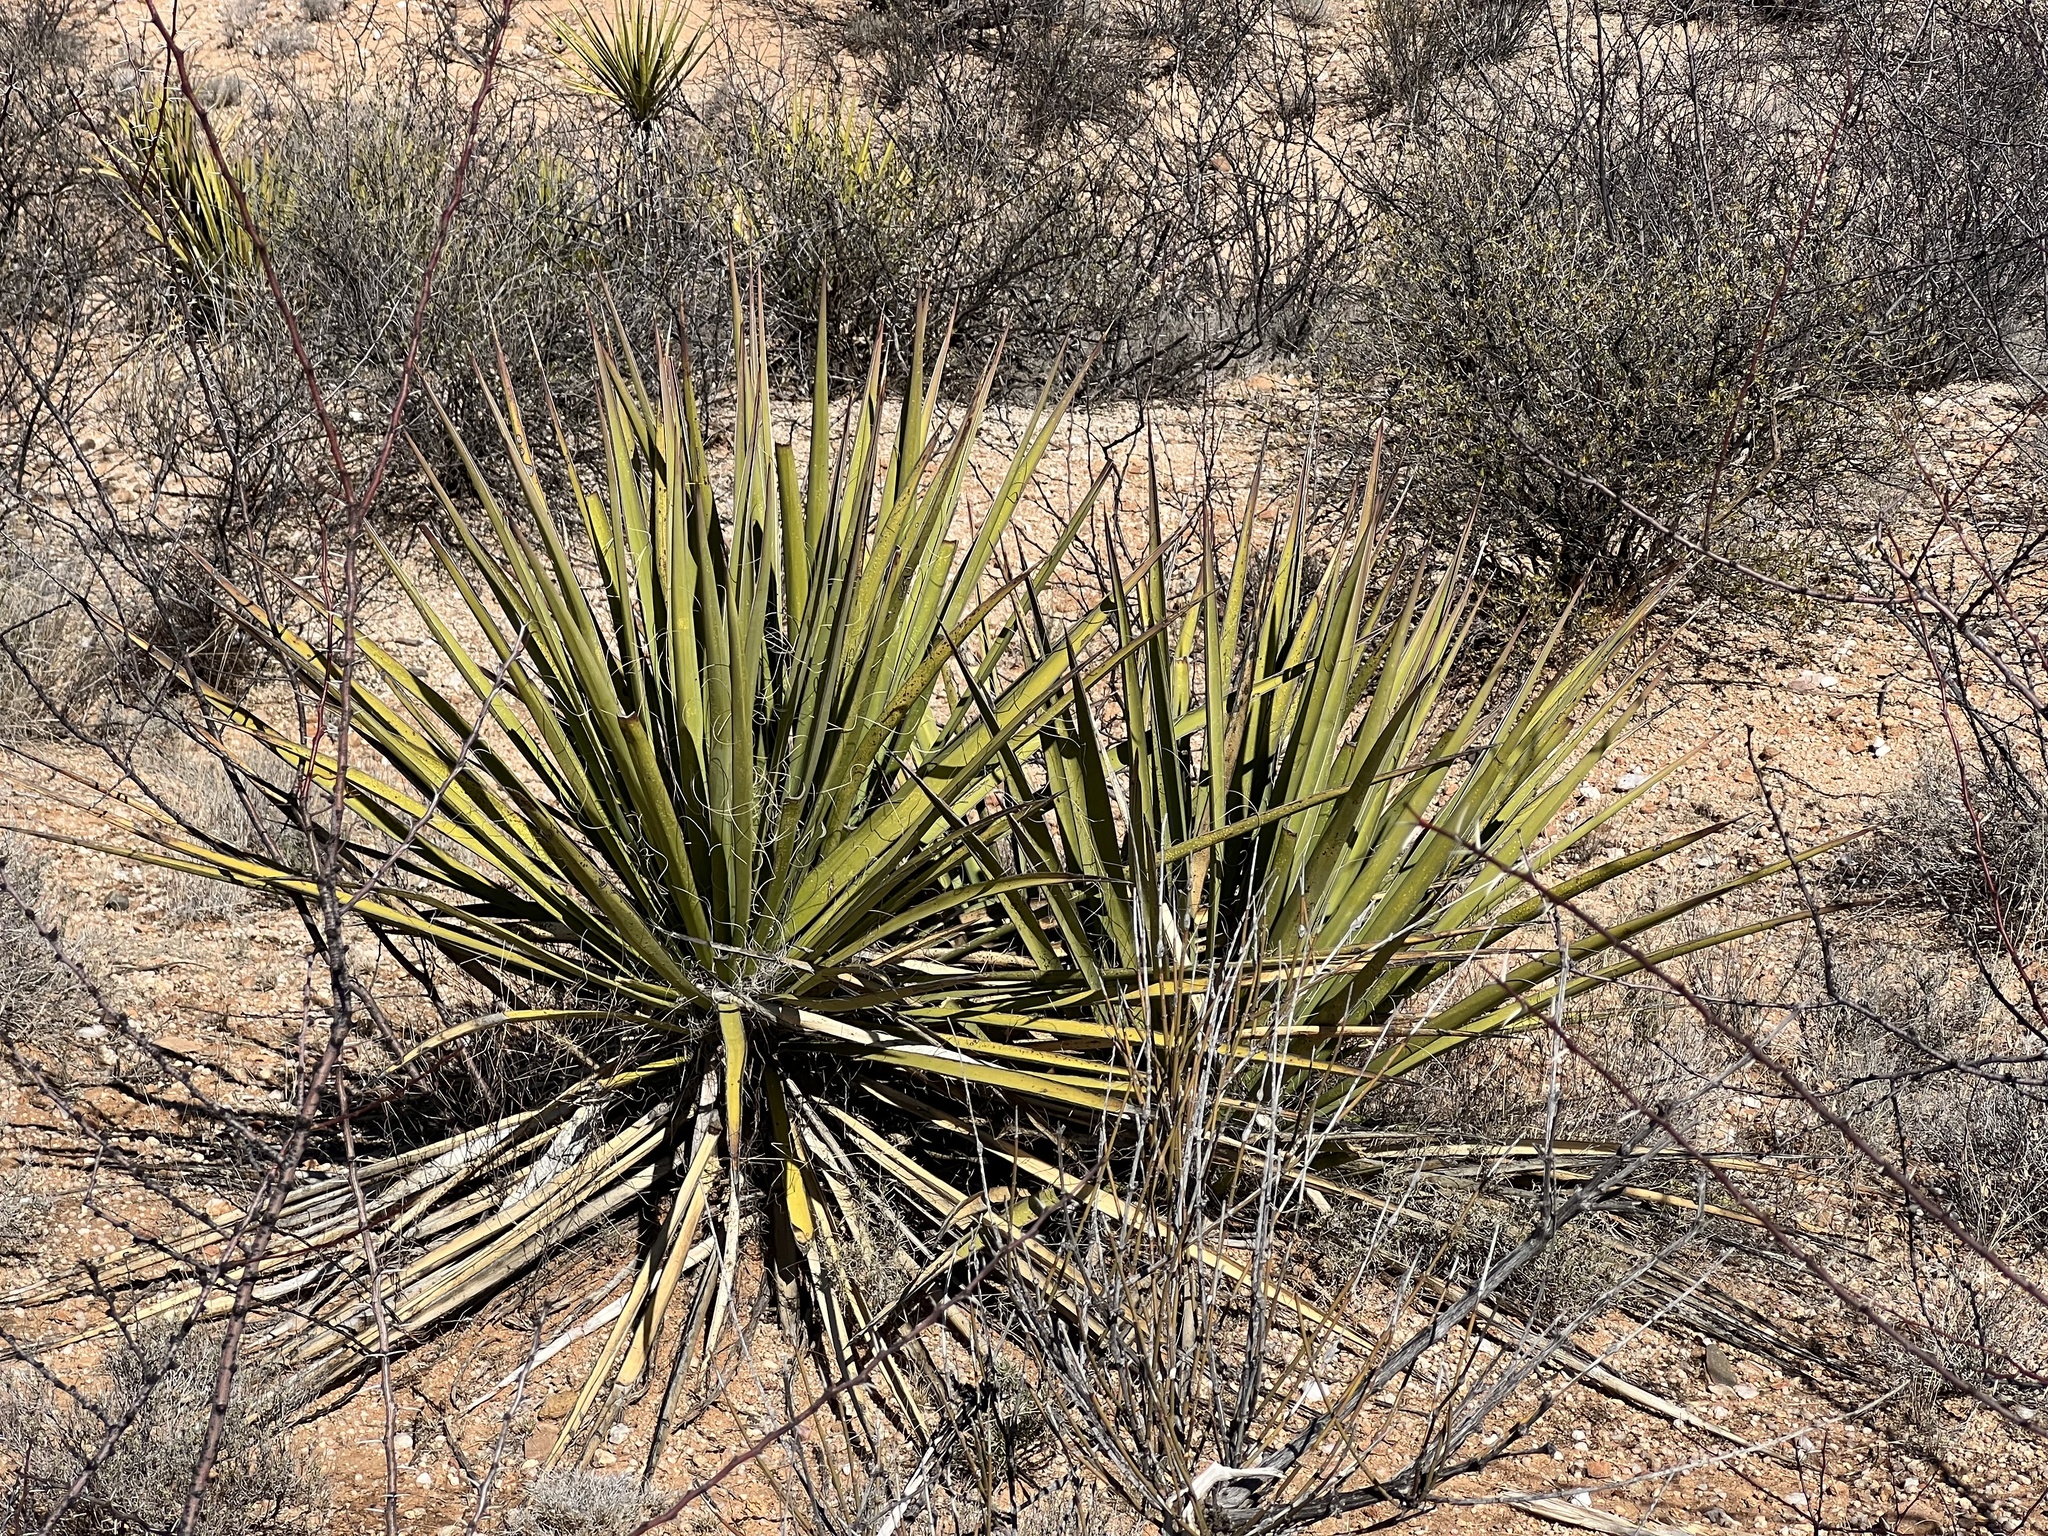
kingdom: Plantae
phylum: Tracheophyta
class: Liliopsida
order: Asparagales
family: Asparagaceae
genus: Yucca
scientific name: Yucca baccata
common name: Banana yucca
